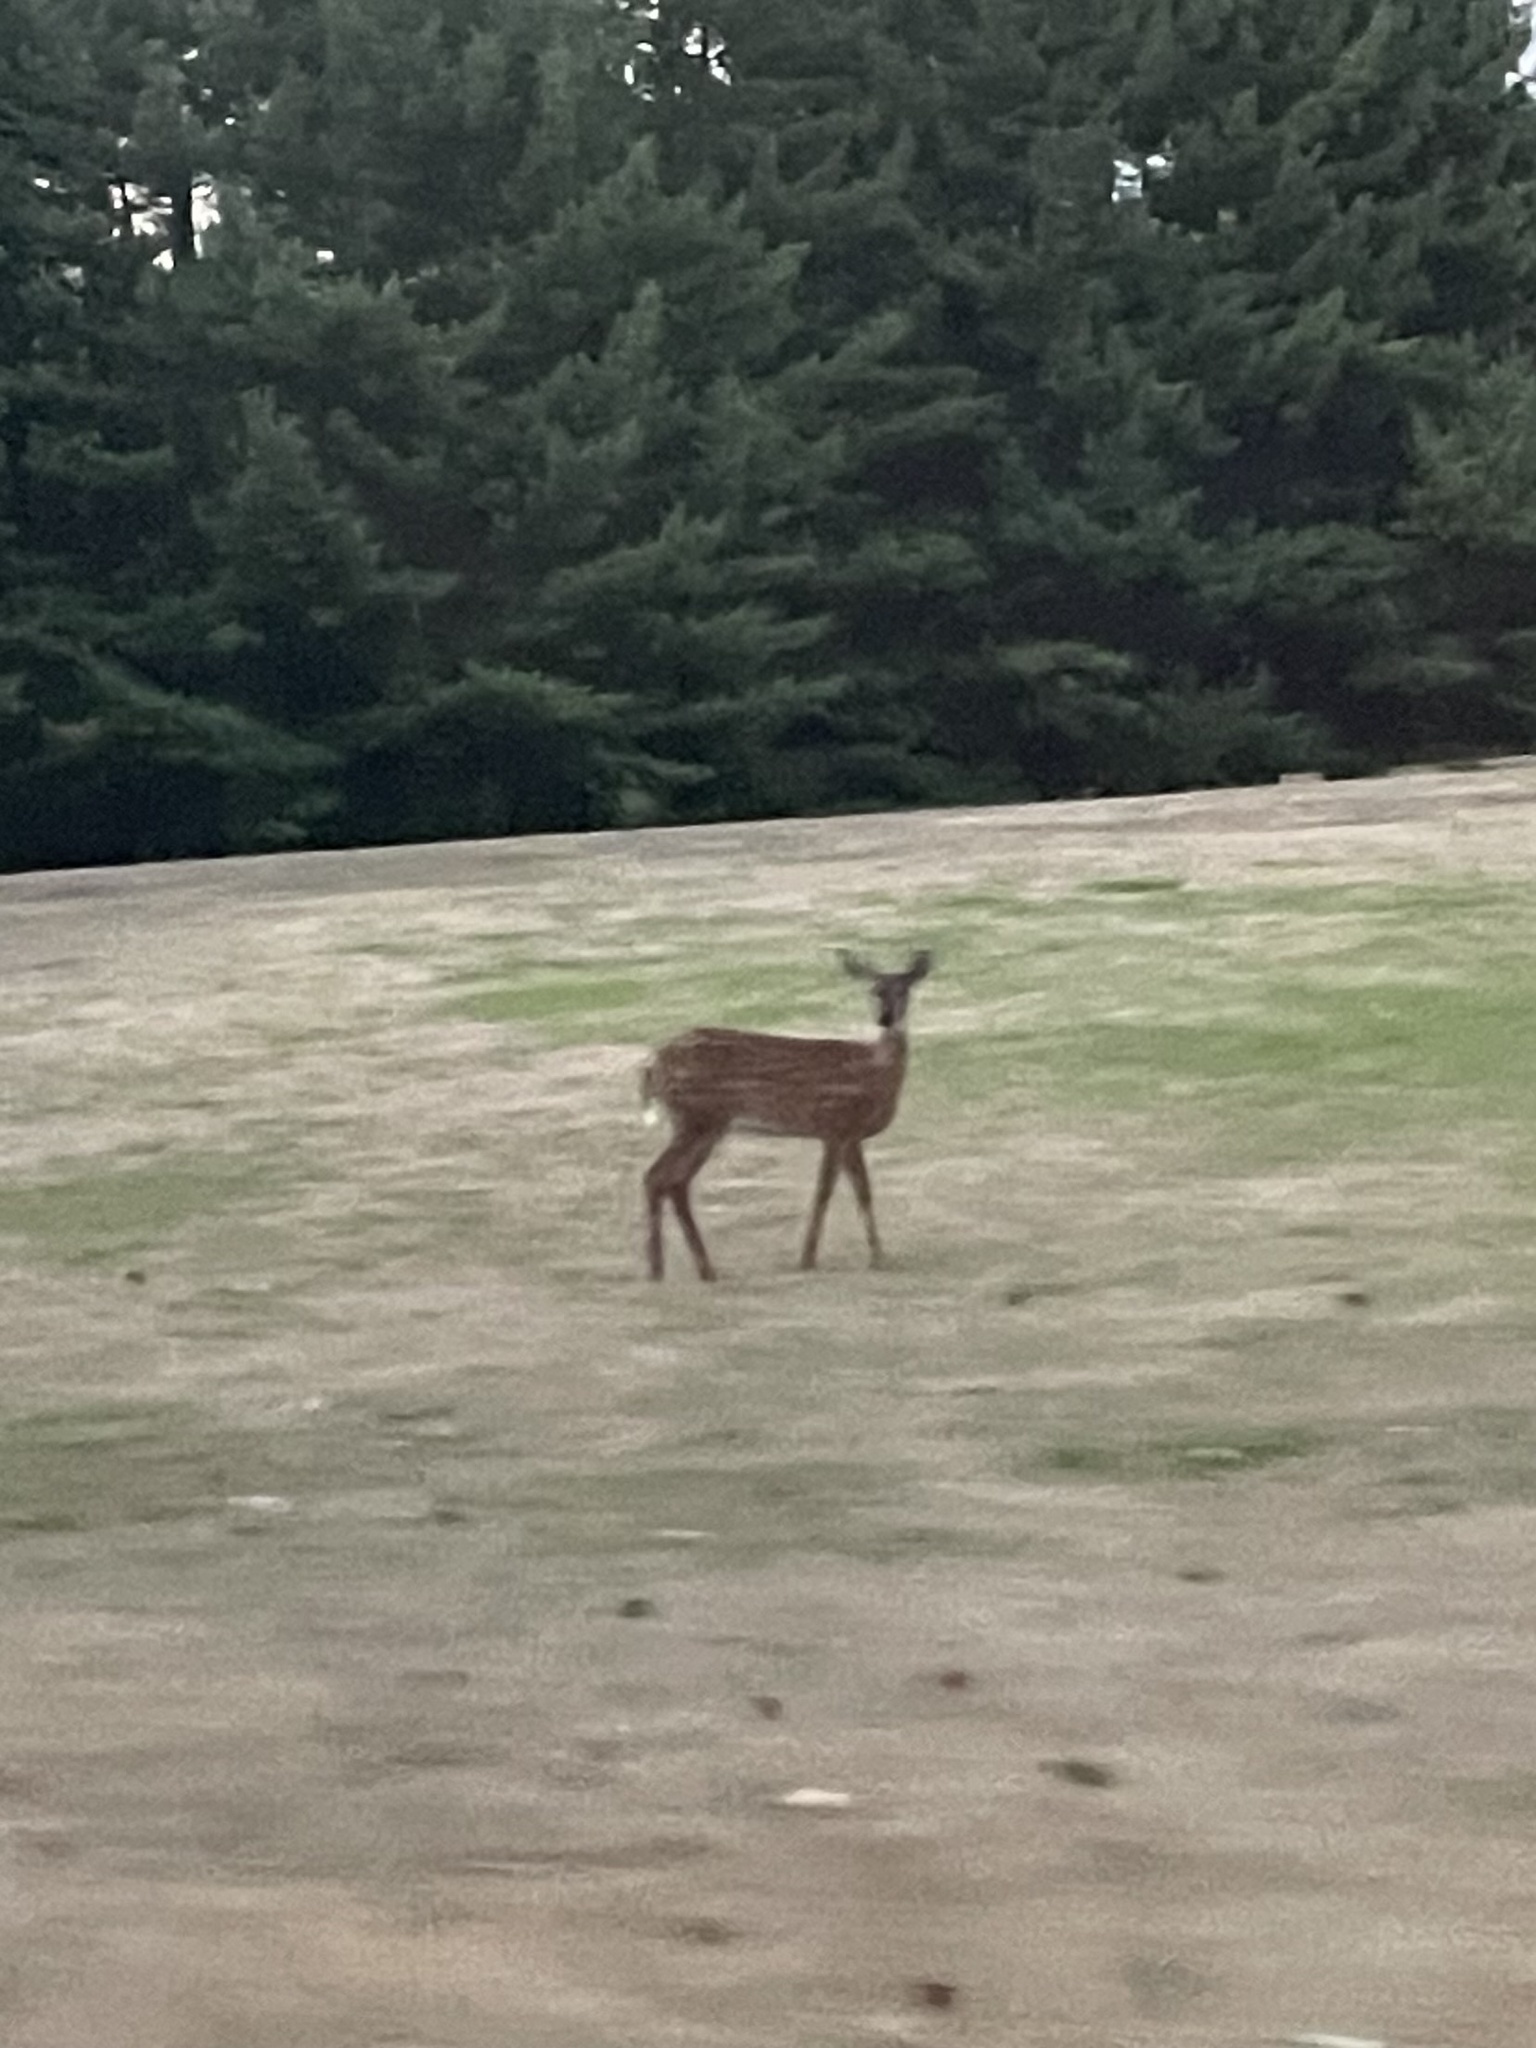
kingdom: Animalia
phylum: Chordata
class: Mammalia
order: Artiodactyla
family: Cervidae
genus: Odocoileus
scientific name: Odocoileus virginianus
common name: White-tailed deer
